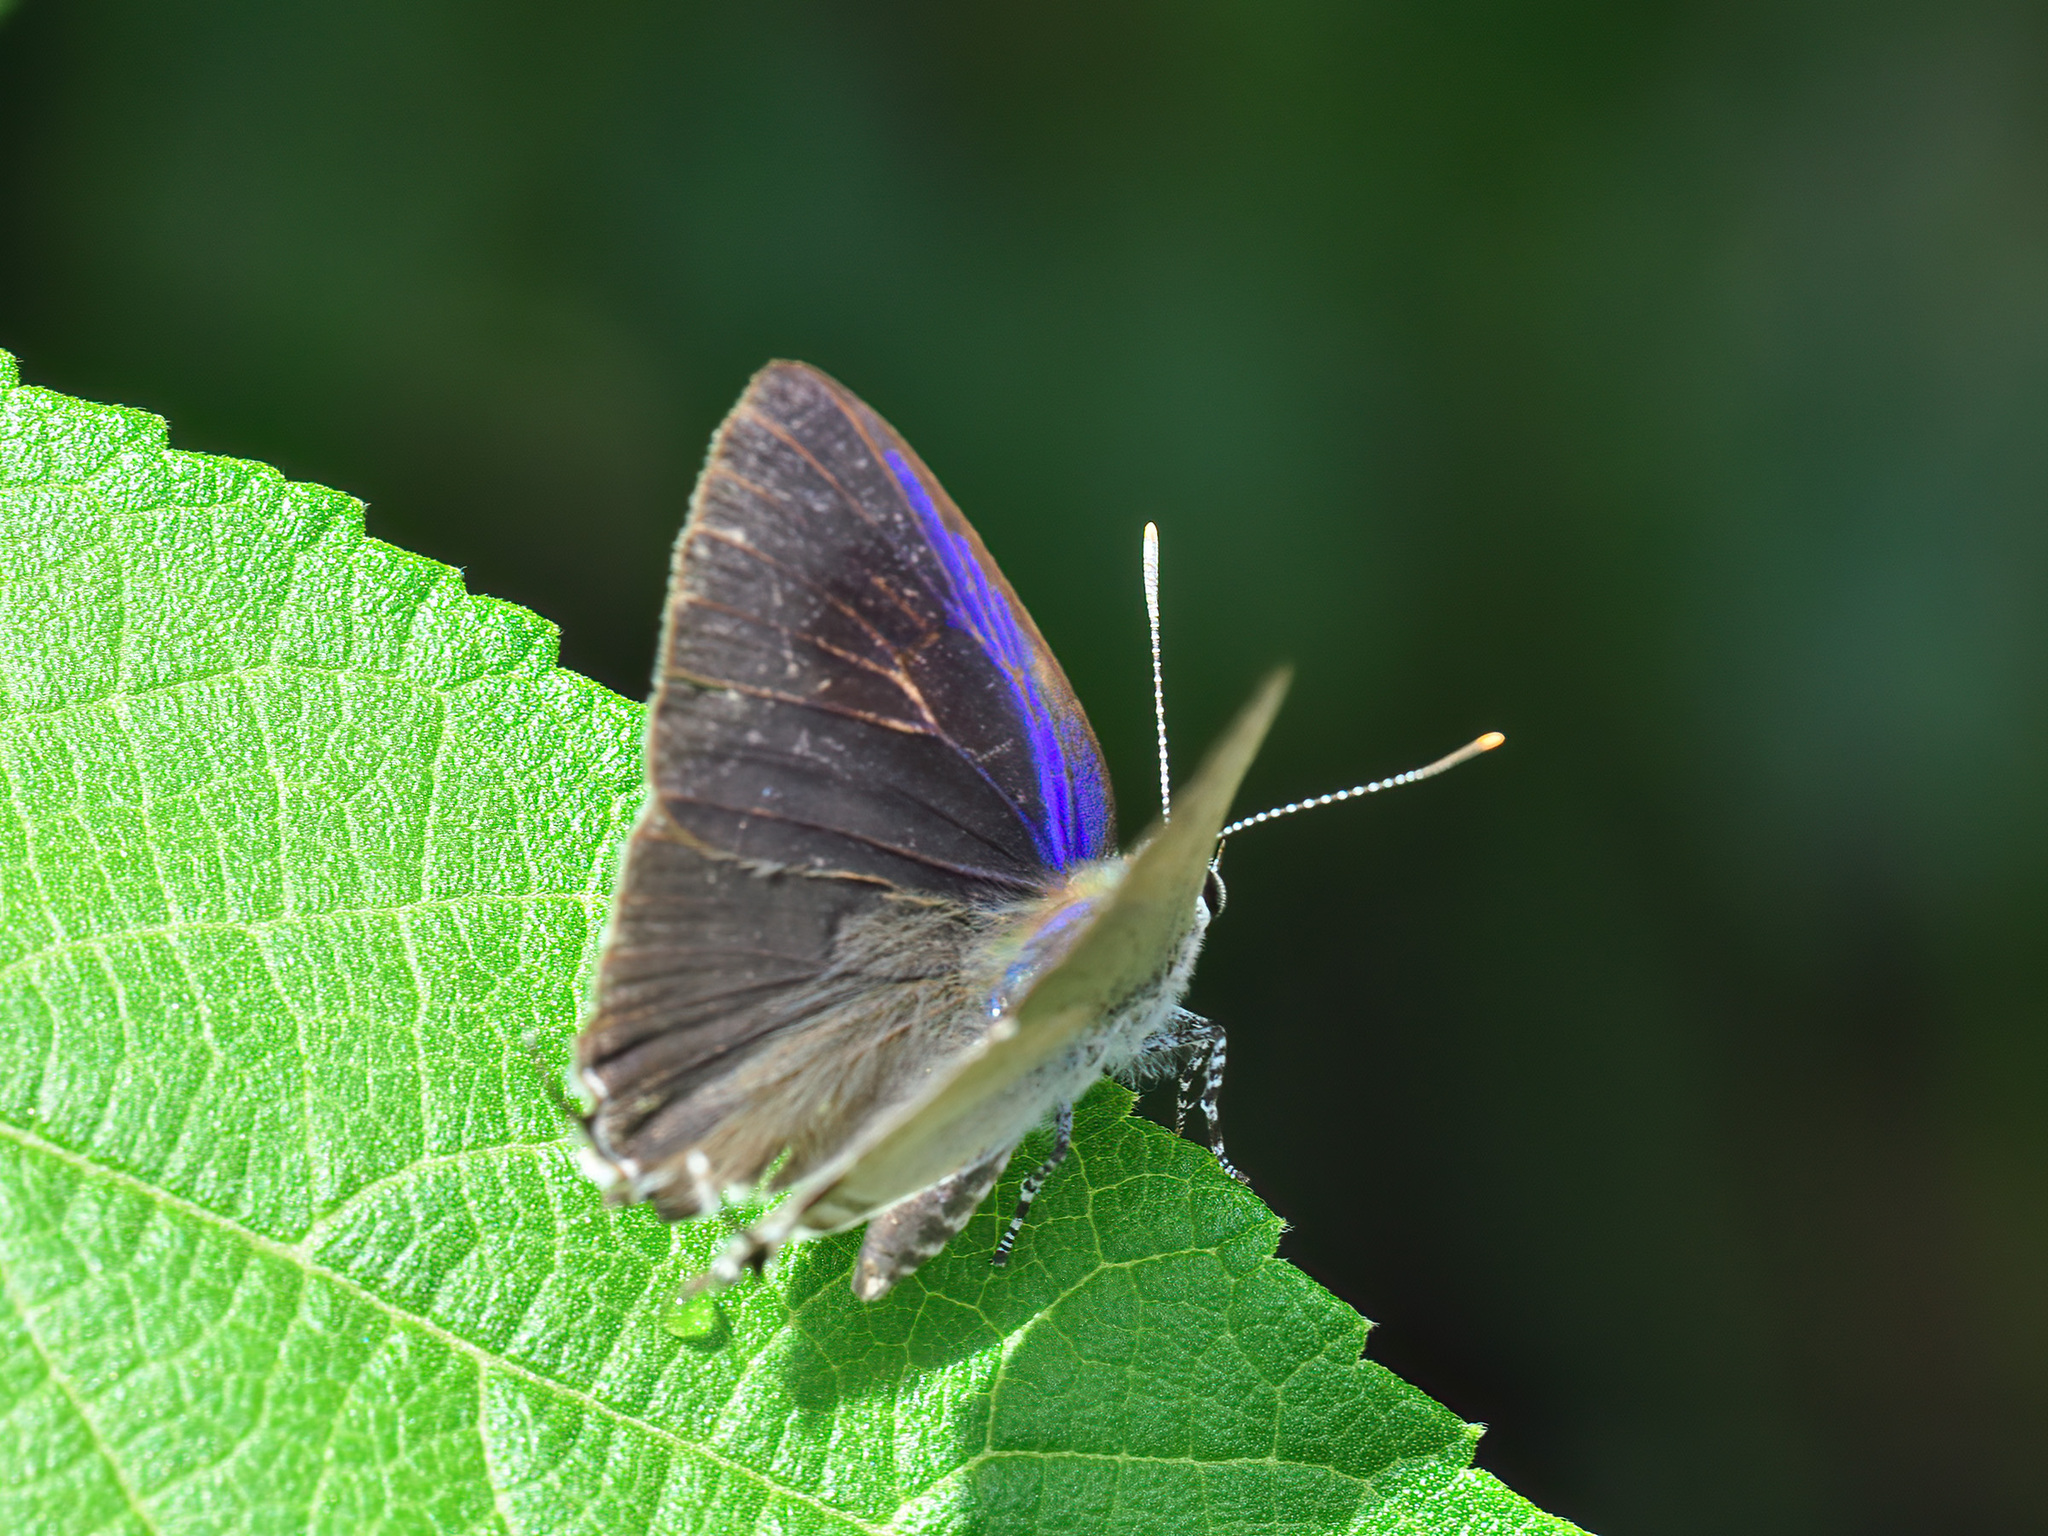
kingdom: Animalia
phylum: Arthropoda
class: Insecta
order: Lepidoptera
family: Lycaenidae
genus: Hypolycaena
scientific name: Hypolycaena erylus
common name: Common tit
